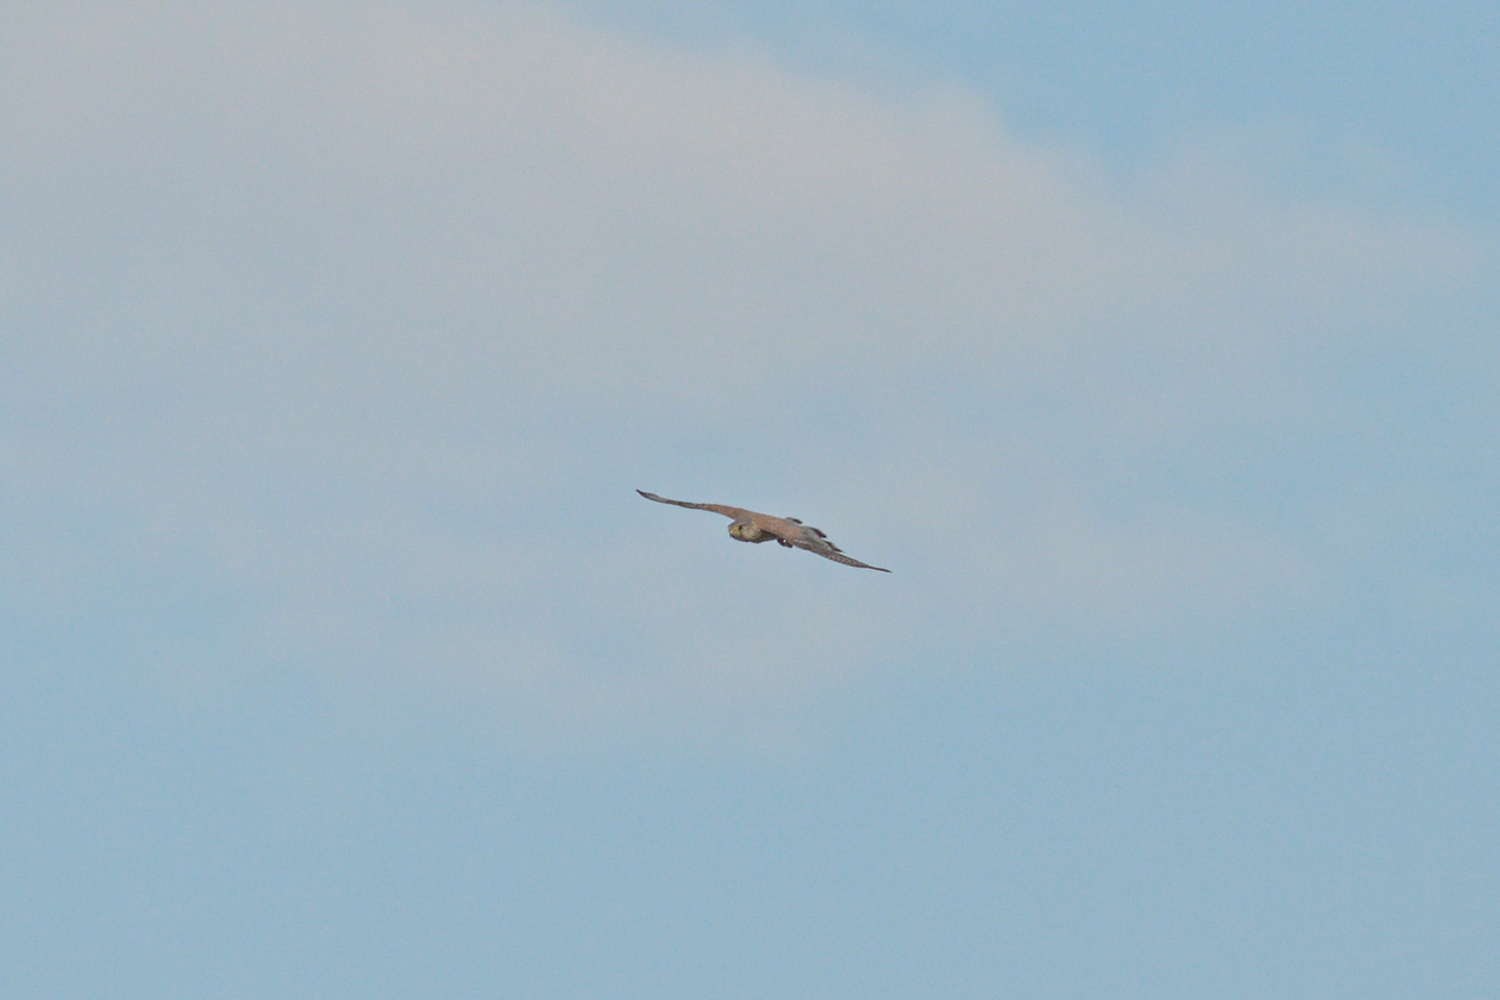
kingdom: Animalia
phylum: Chordata
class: Aves
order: Falconiformes
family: Falconidae
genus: Falco
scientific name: Falco tinnunculus
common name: Common kestrel
